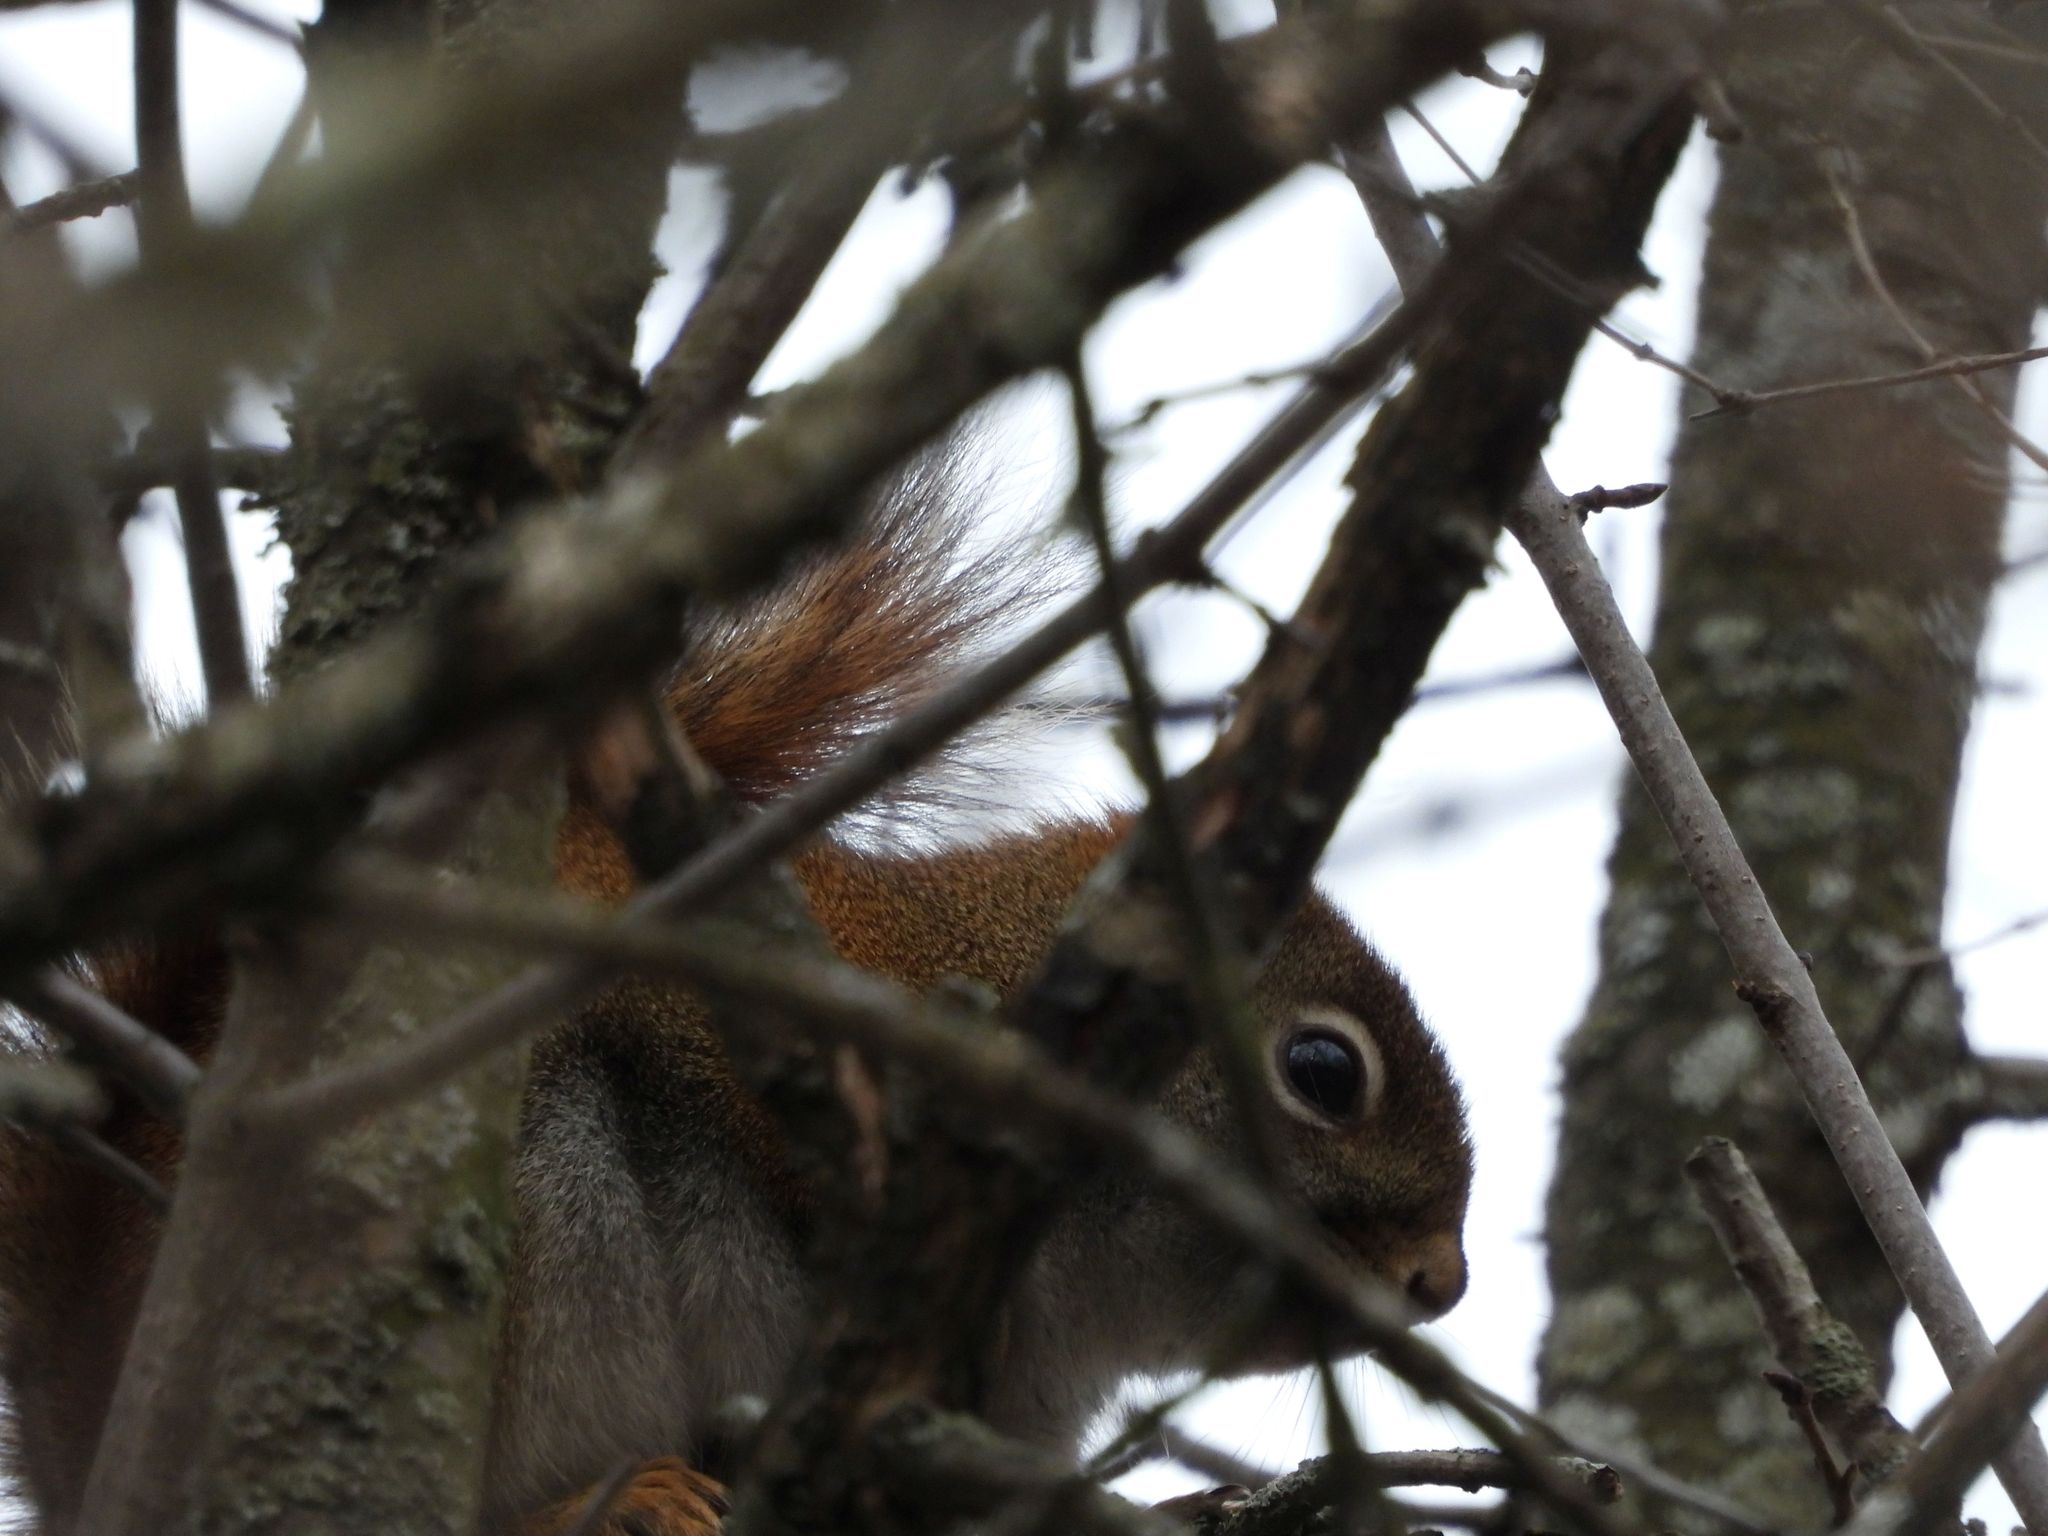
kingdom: Animalia
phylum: Chordata
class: Mammalia
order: Rodentia
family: Sciuridae
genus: Tamiasciurus
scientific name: Tamiasciurus hudsonicus
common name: Red squirrel
